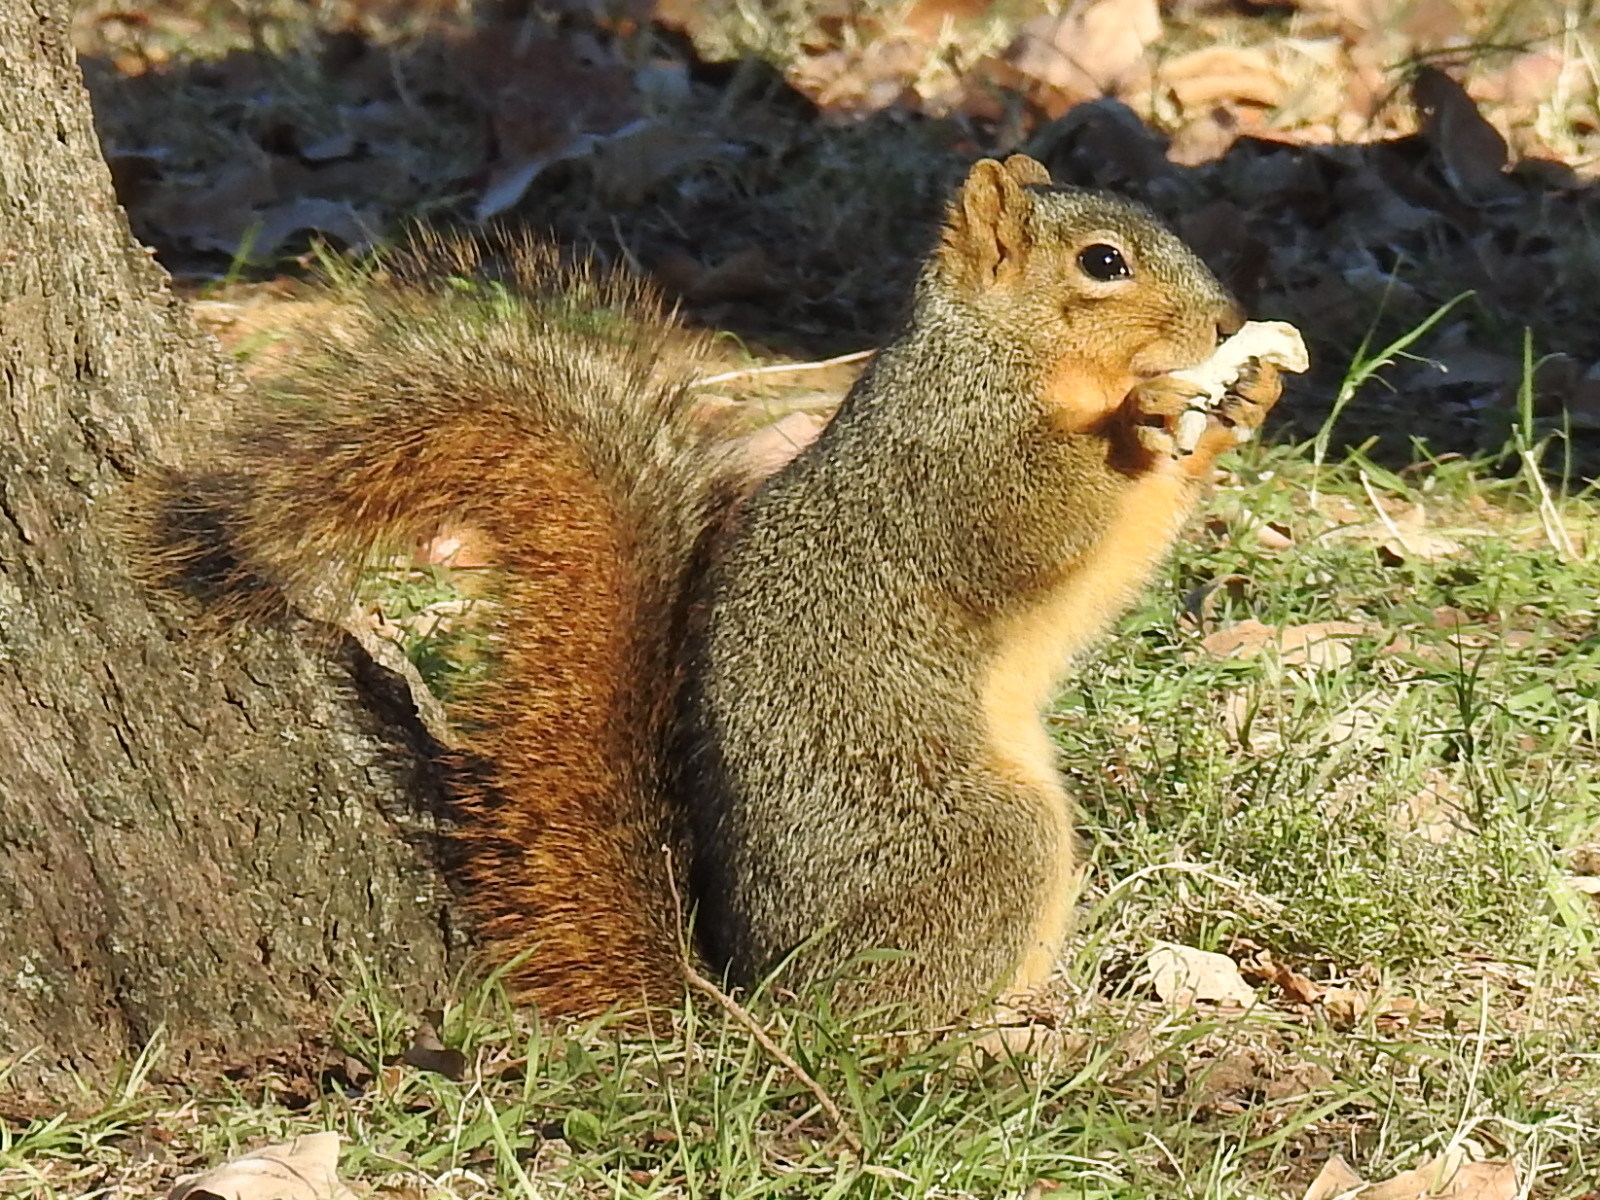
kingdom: Animalia
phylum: Chordata
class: Mammalia
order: Rodentia
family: Sciuridae
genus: Sciurus
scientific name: Sciurus niger
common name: Fox squirrel
